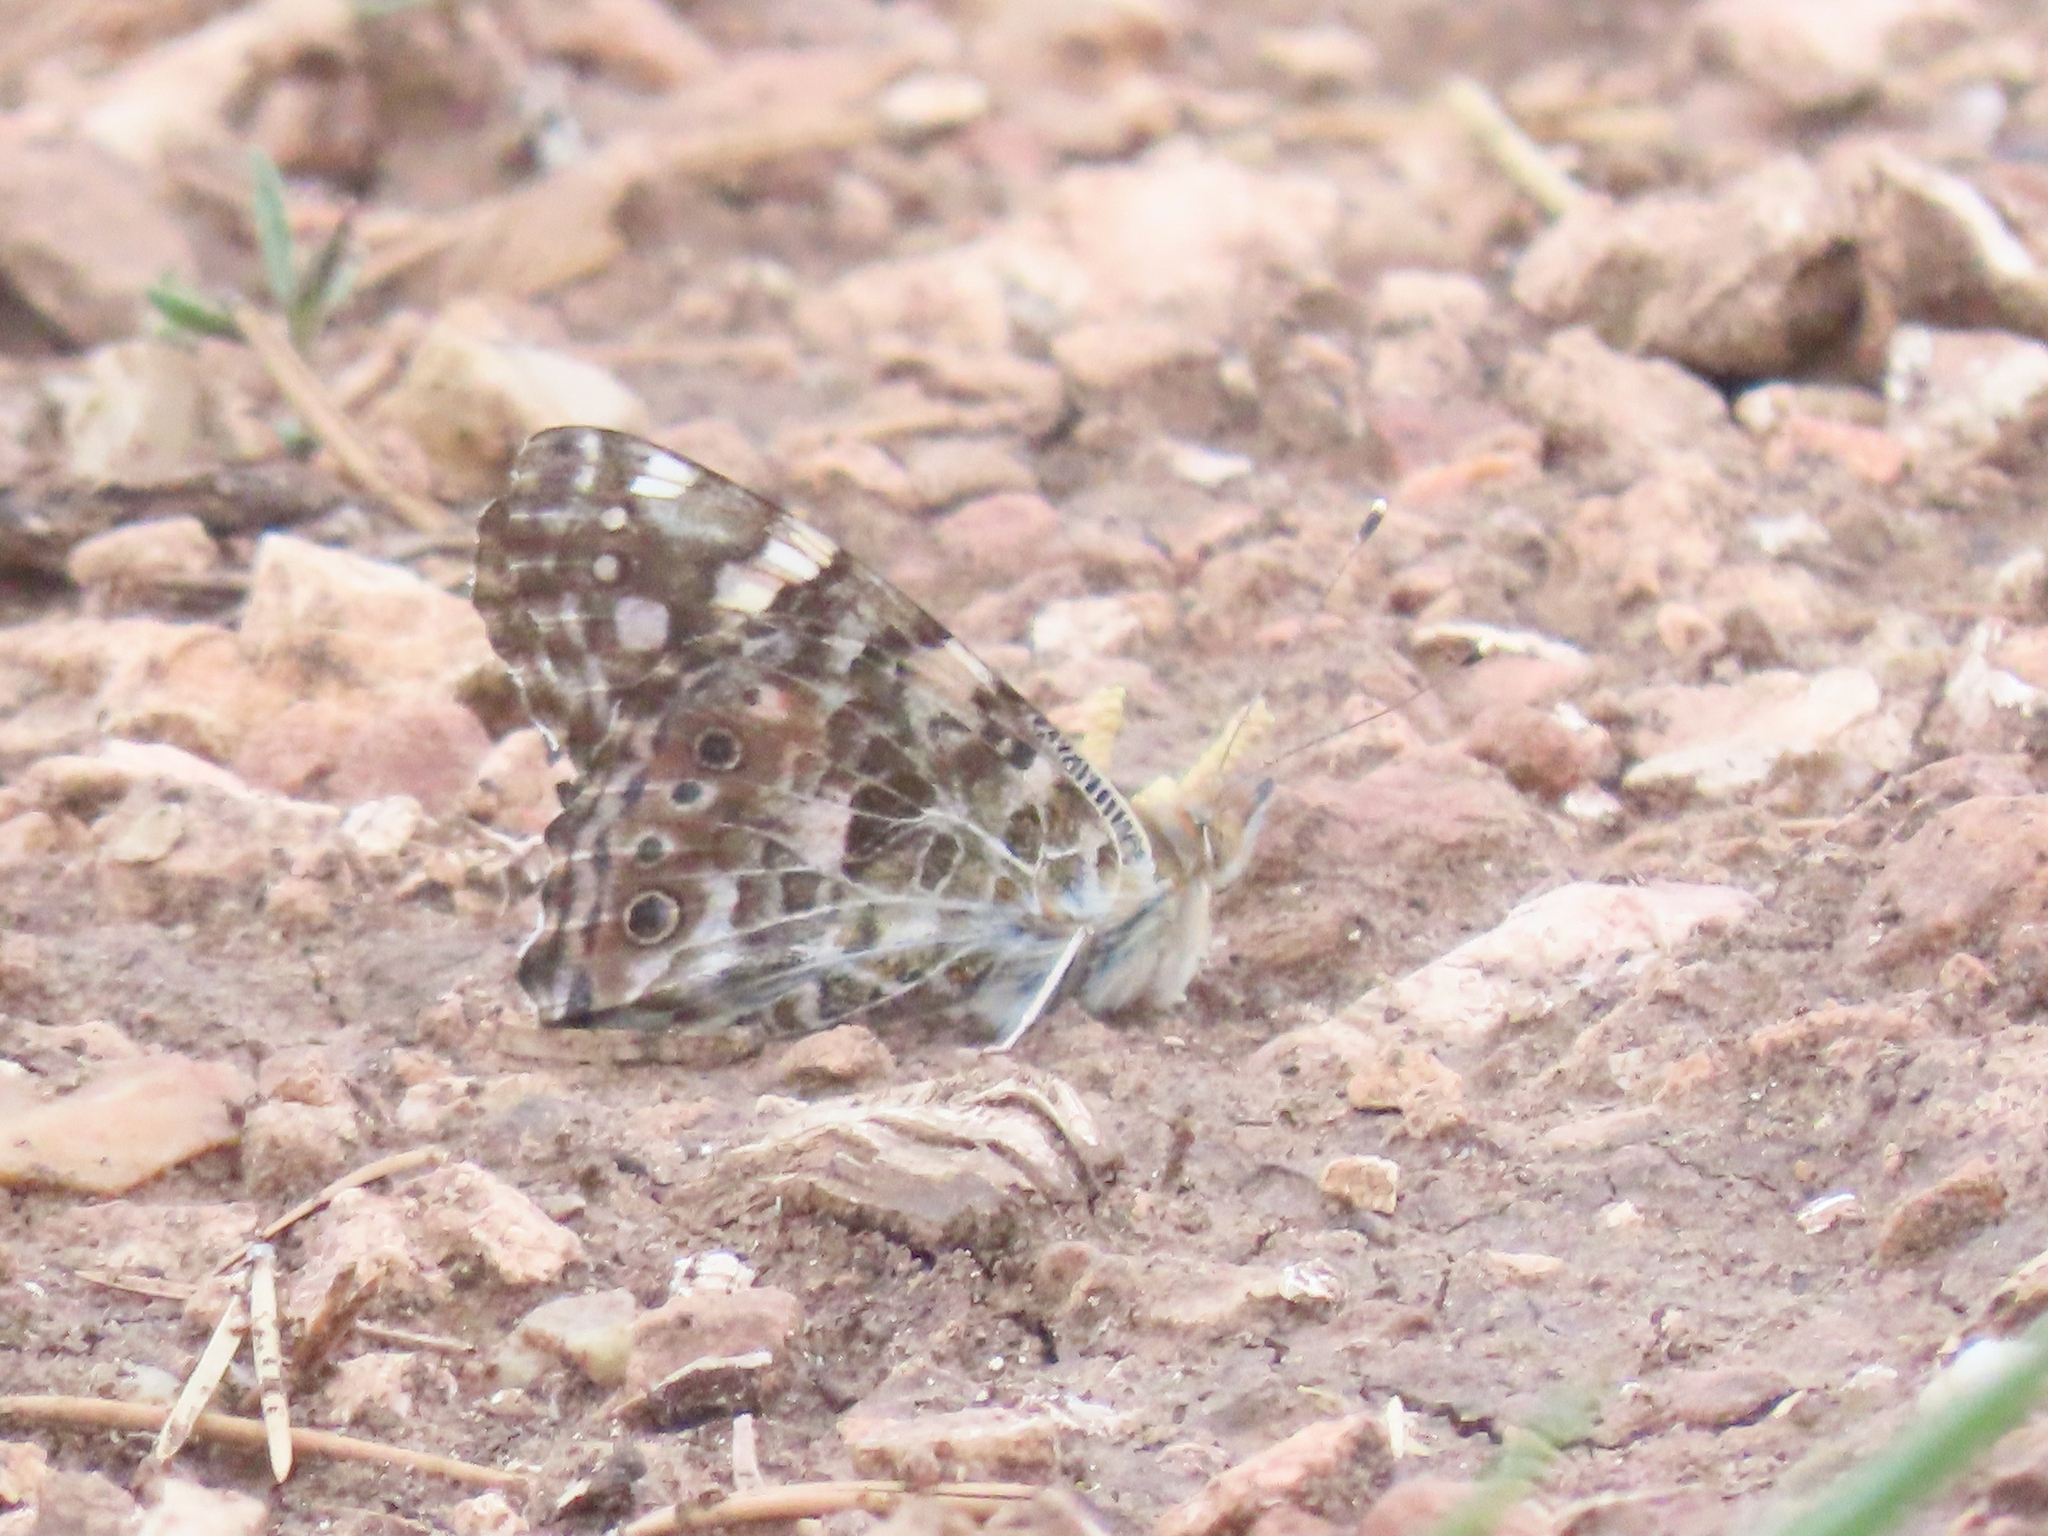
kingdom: Animalia
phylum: Arthropoda
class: Insecta
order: Lepidoptera
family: Nymphalidae
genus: Vanessa
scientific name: Vanessa cardui
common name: Painted lady
